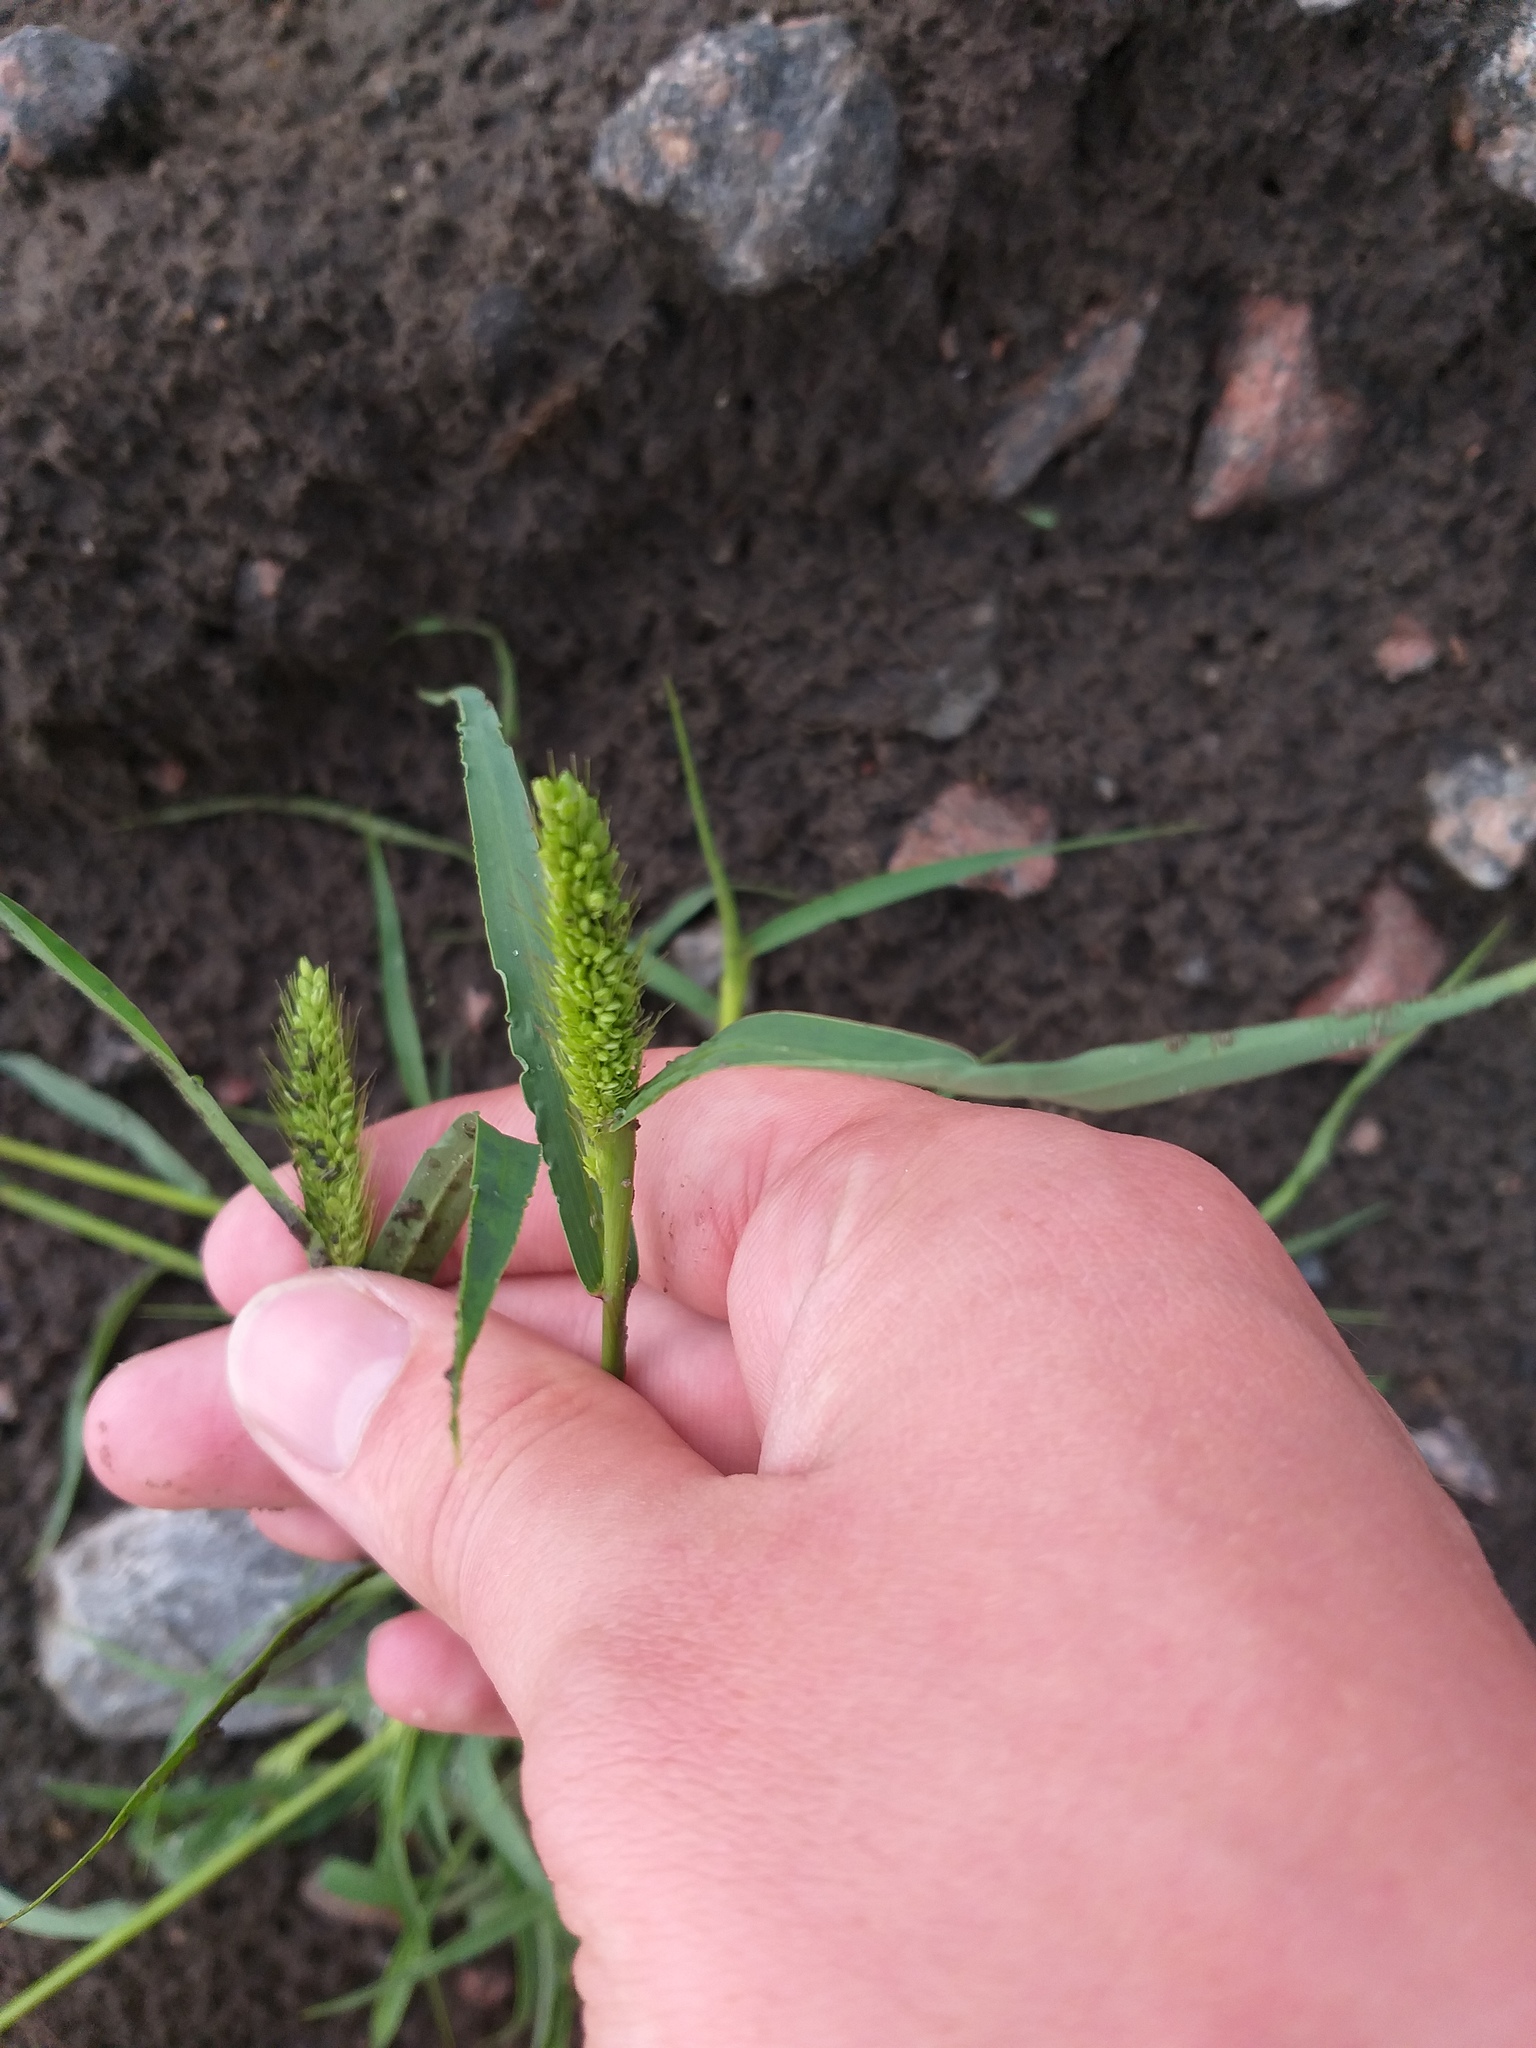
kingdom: Plantae
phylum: Tracheophyta
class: Liliopsida
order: Poales
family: Poaceae
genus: Setaria
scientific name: Setaria viridis
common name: Green bristlegrass
